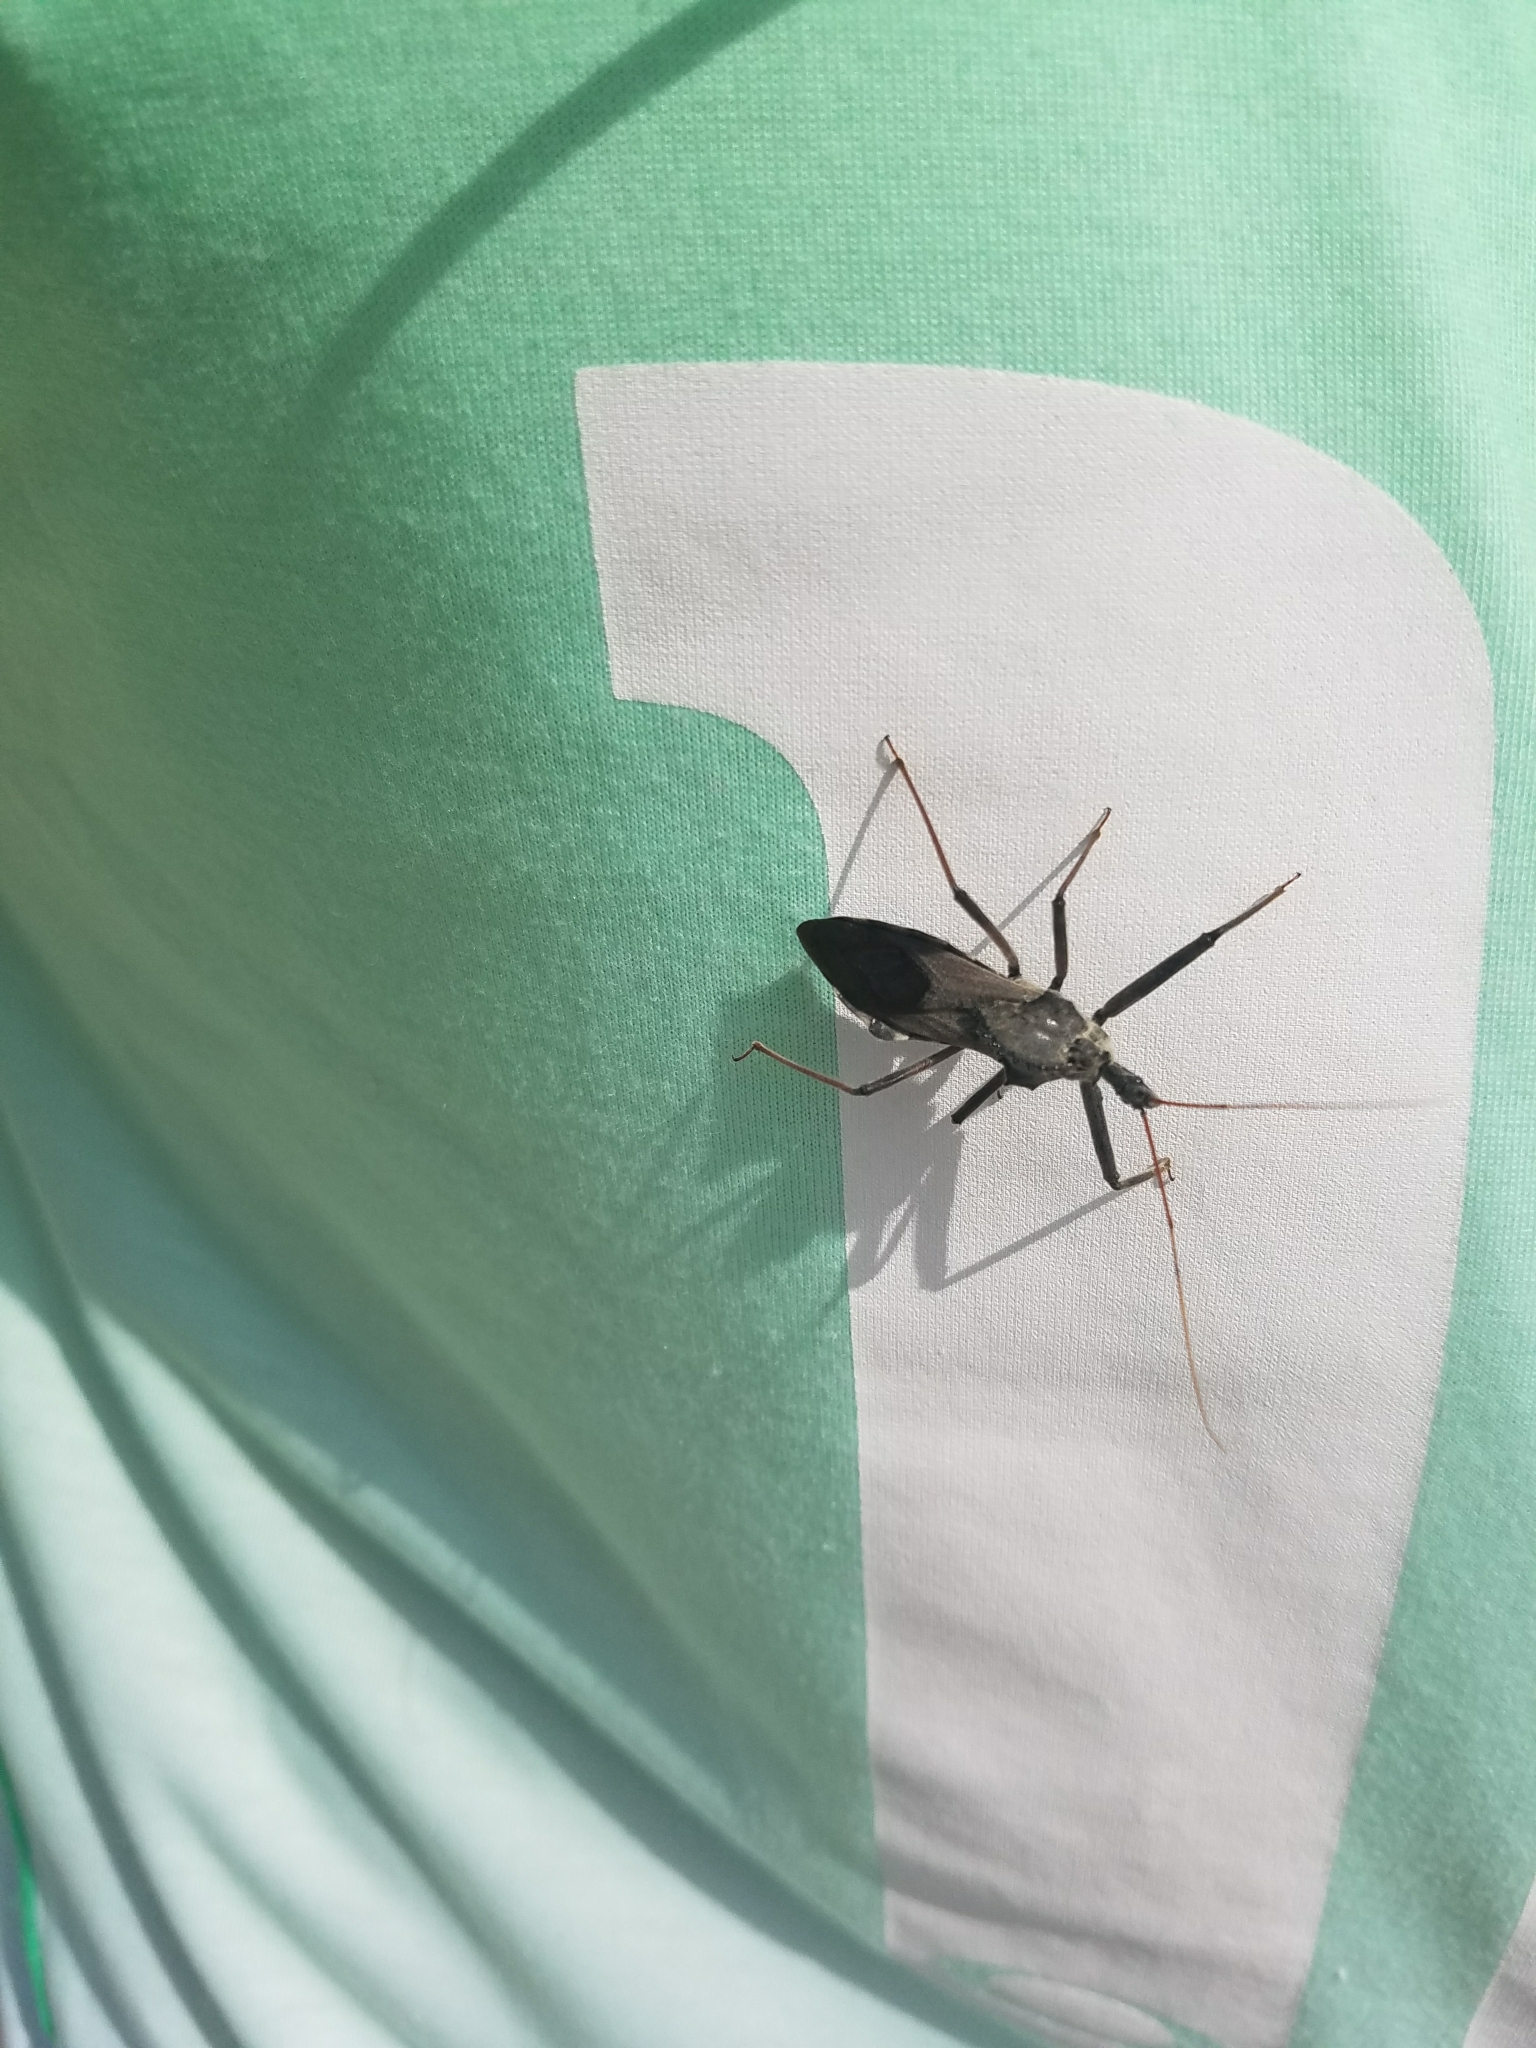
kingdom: Animalia
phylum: Arthropoda
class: Insecta
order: Hemiptera
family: Reduviidae
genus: Arilus
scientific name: Arilus cristatus
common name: North american wheel bug
